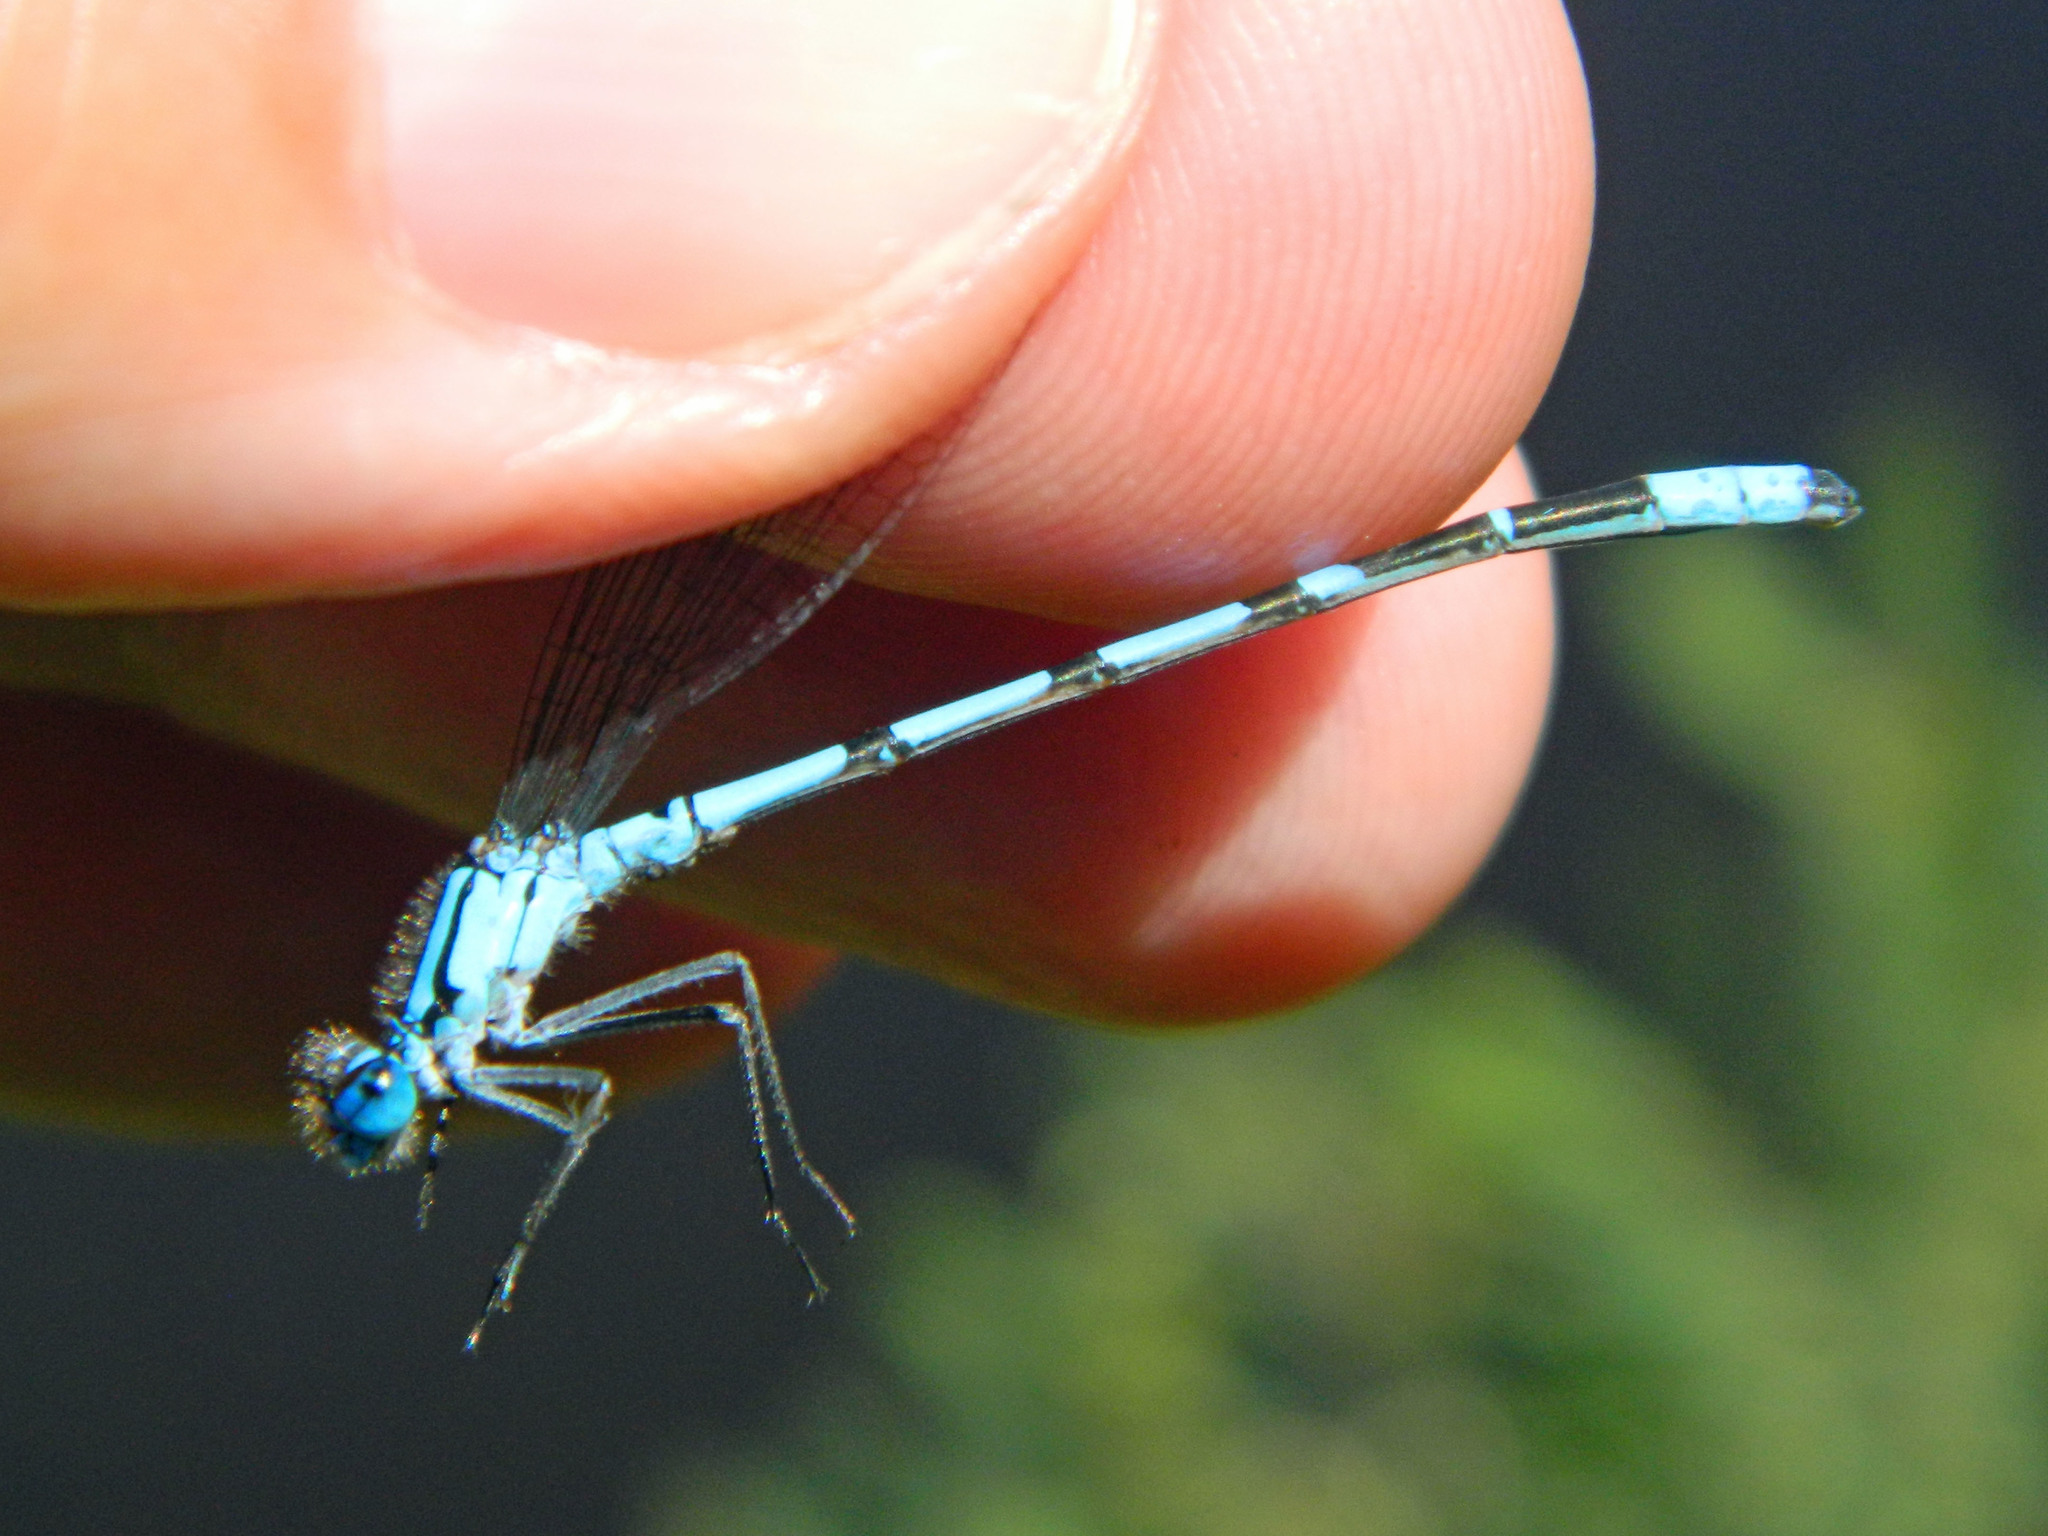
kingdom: Animalia
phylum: Arthropoda
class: Insecta
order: Odonata
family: Coenagrionidae
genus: Enallagma
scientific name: Enallagma boreale
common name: Boreal bluet
